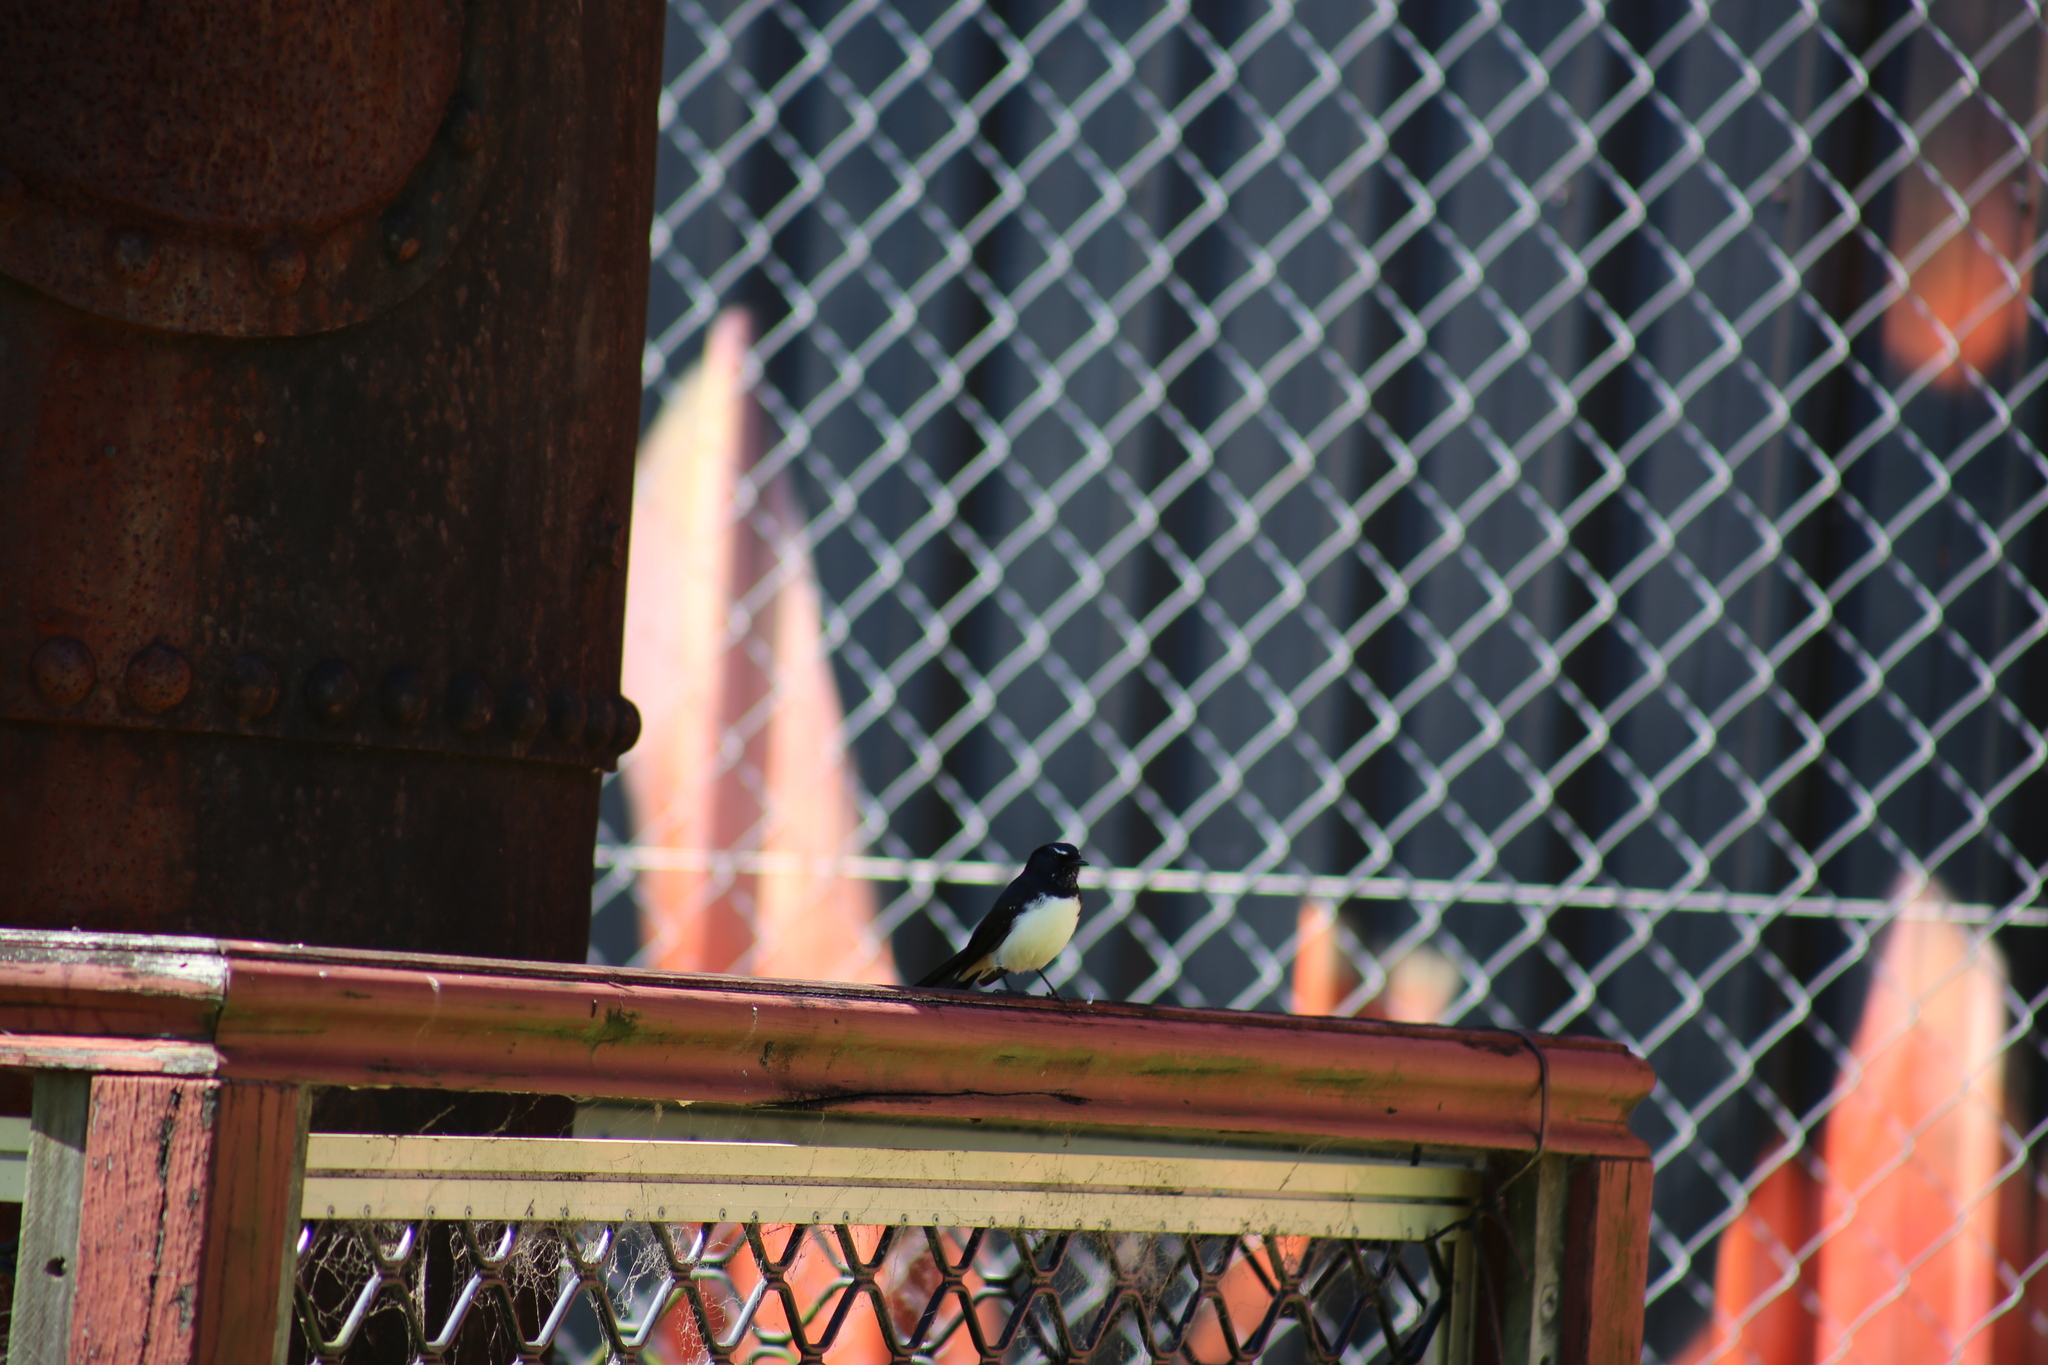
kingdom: Animalia
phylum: Chordata
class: Aves
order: Passeriformes
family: Rhipiduridae
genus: Rhipidura
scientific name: Rhipidura leucophrys
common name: Willie wagtail
